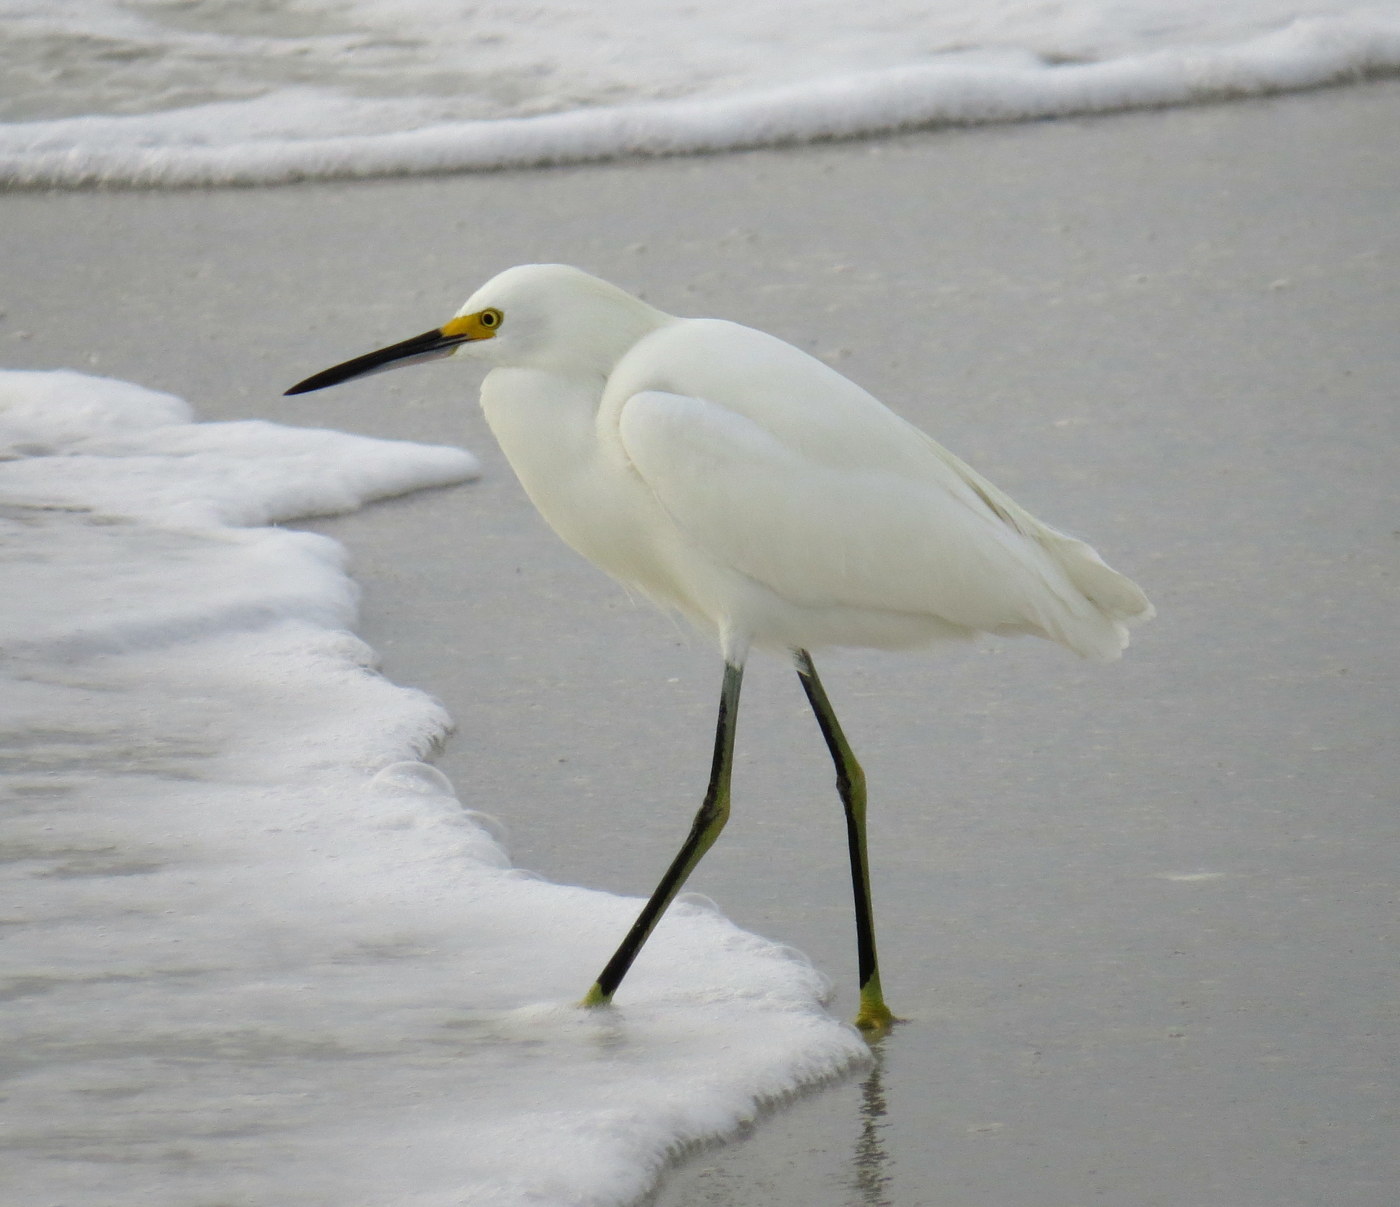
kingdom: Animalia
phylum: Chordata
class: Aves
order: Pelecaniformes
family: Ardeidae
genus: Egretta
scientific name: Egretta thula
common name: Snowy egret
